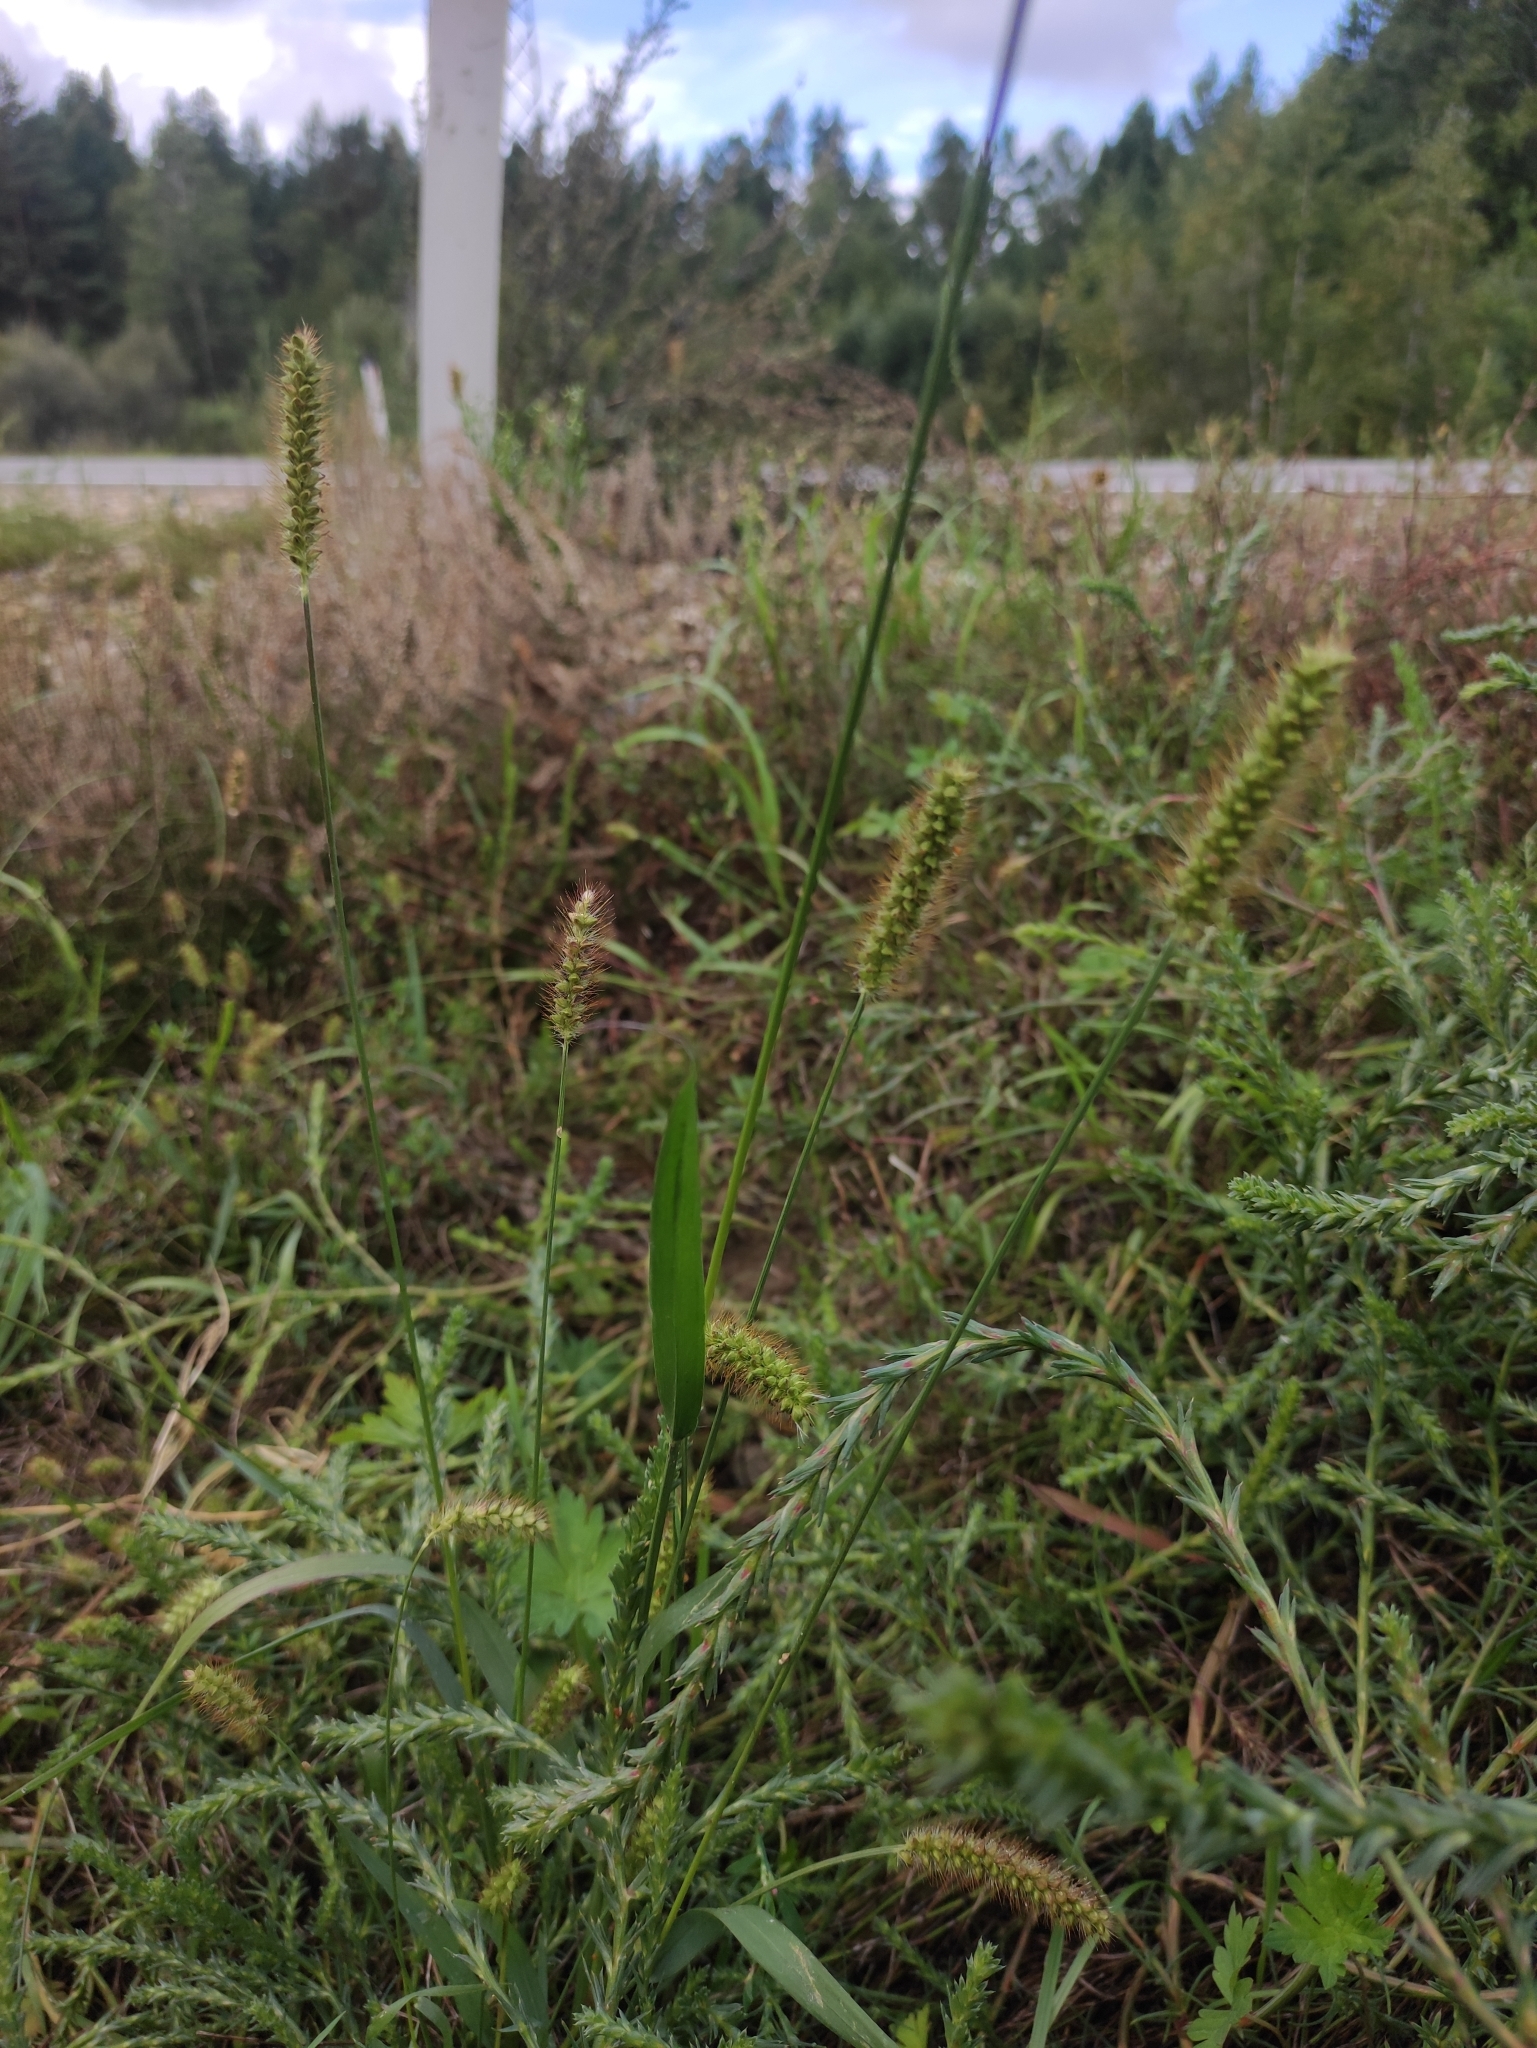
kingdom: Plantae
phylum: Tracheophyta
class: Liliopsida
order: Poales
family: Poaceae
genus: Setaria
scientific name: Setaria pumila
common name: Yellow bristle-grass
